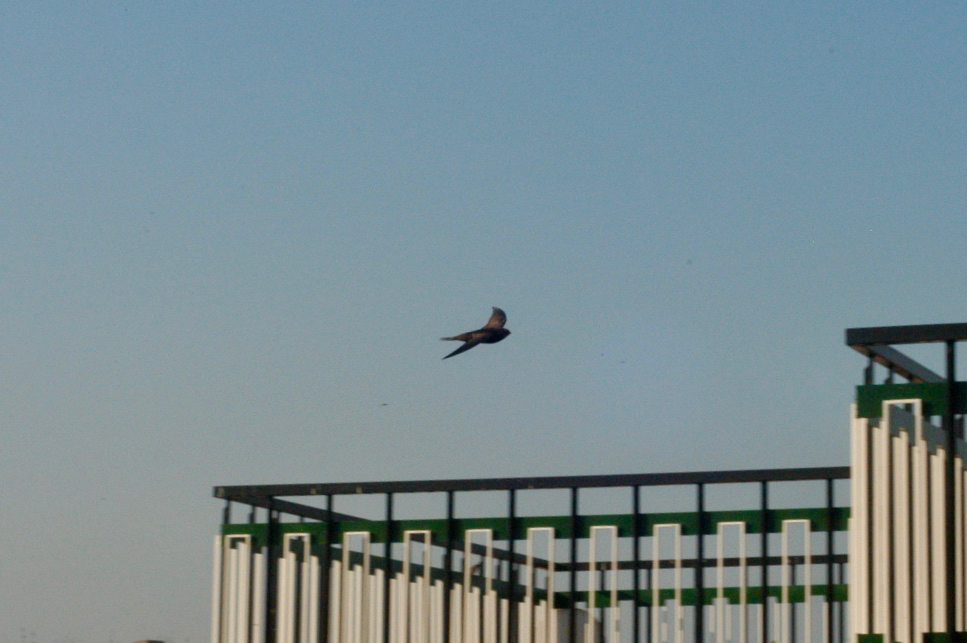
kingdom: Animalia
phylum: Chordata
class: Aves
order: Apodiformes
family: Apodidae
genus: Apus
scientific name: Apus apus
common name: Common swift
